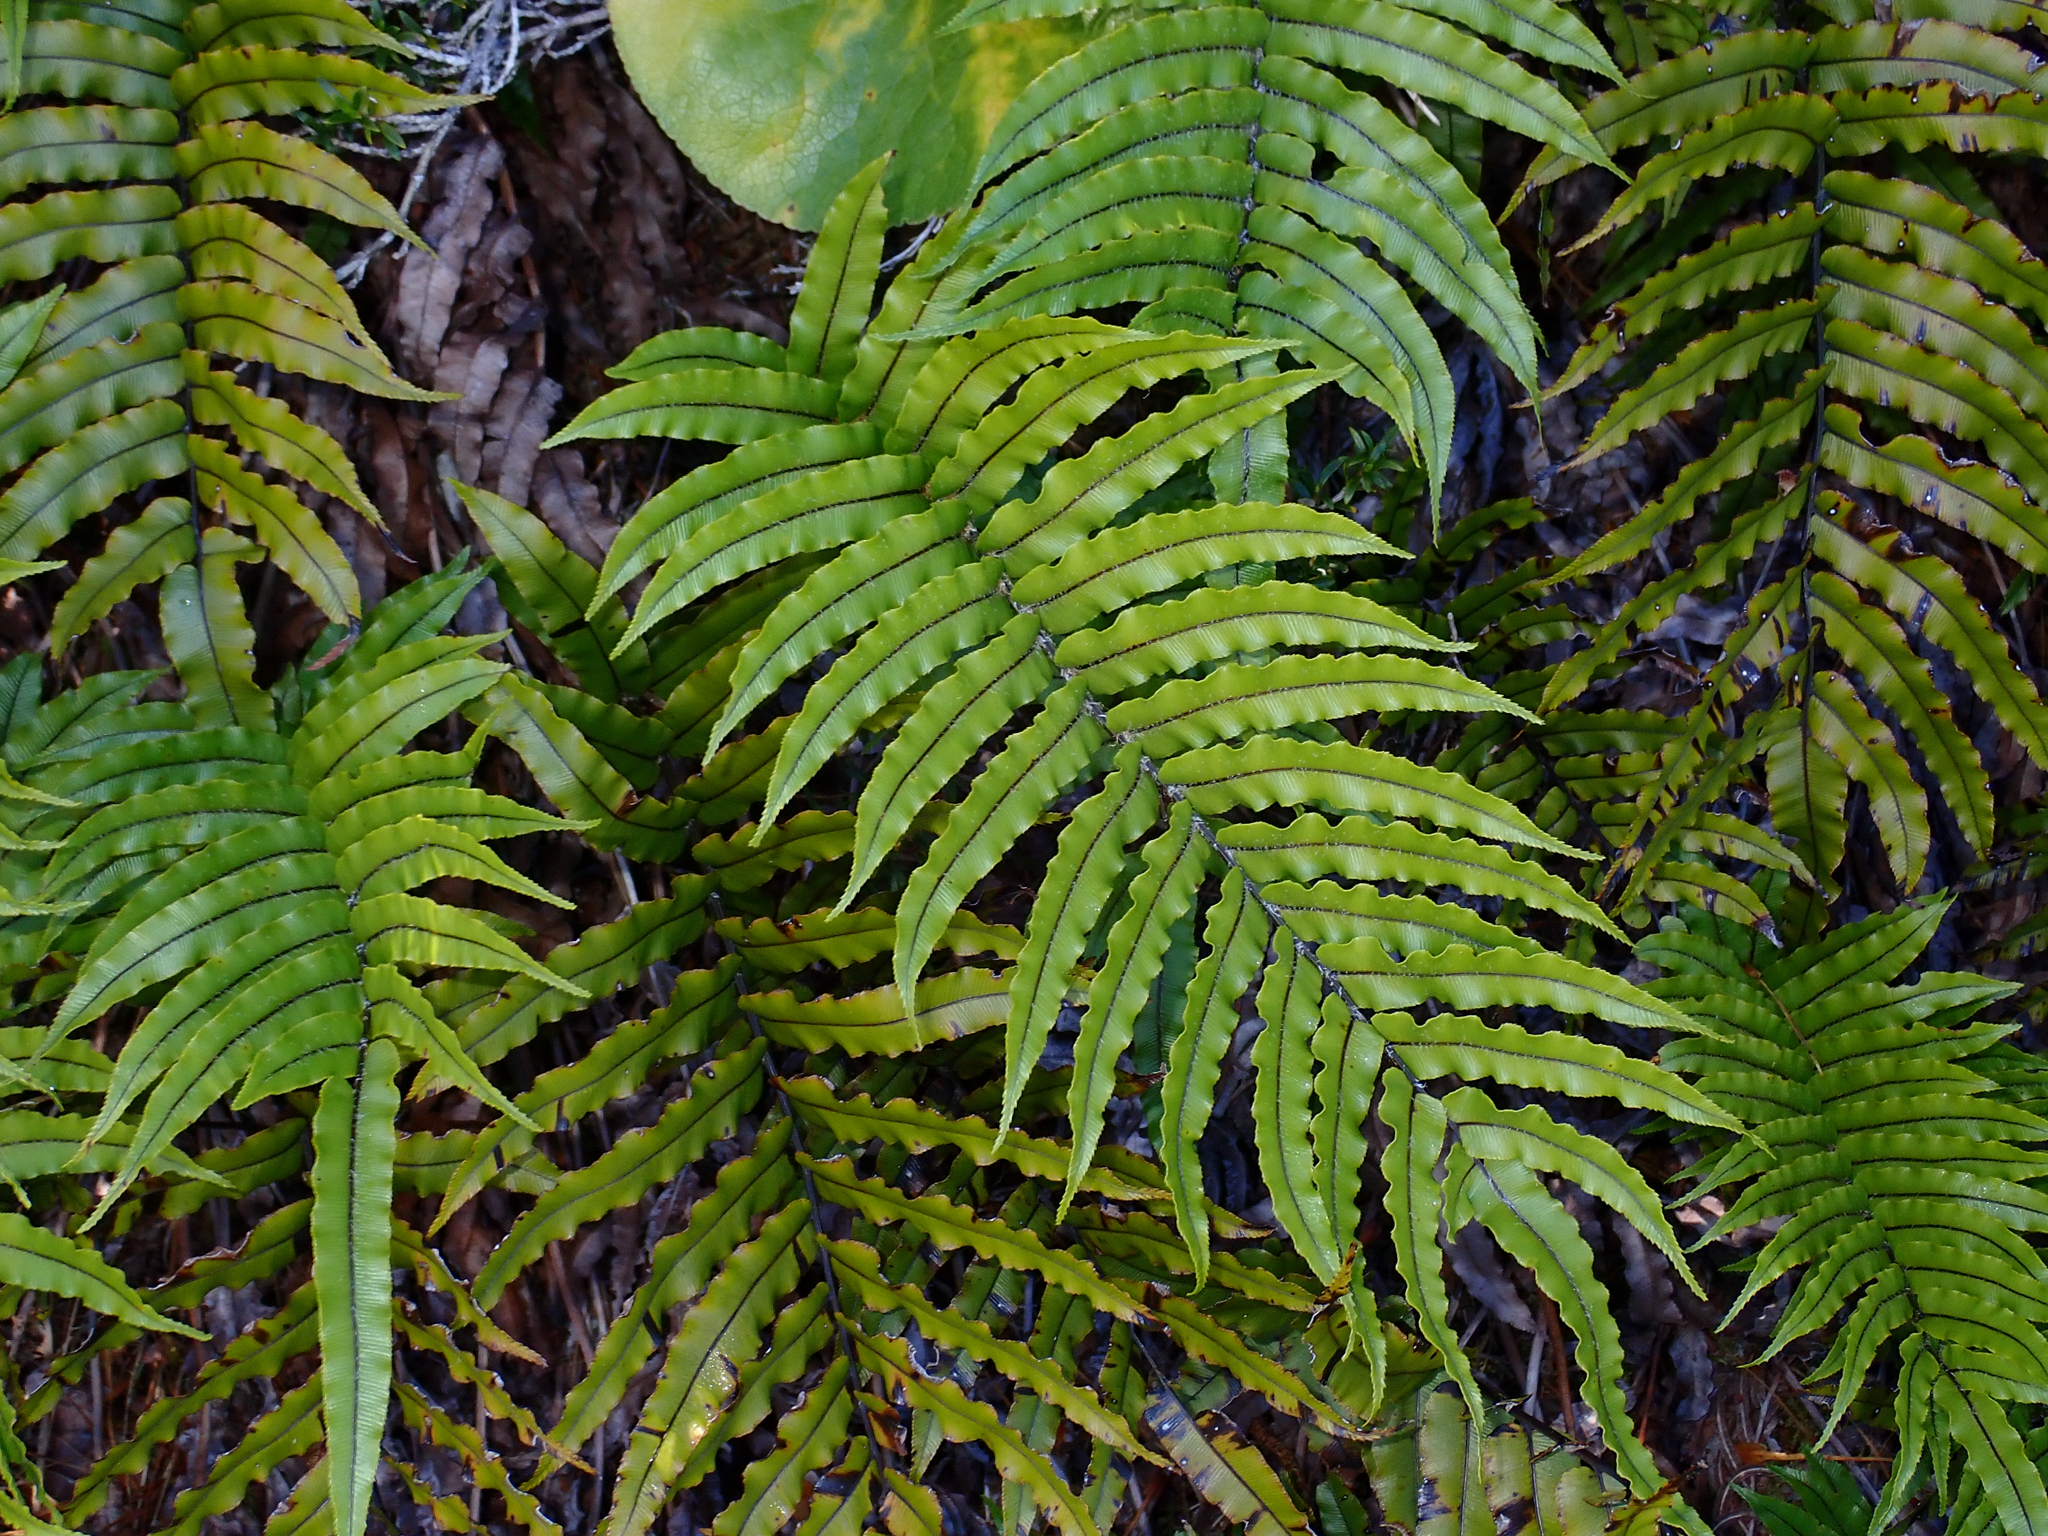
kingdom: Plantae
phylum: Tracheophyta
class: Polypodiopsida
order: Polypodiales
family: Blechnaceae
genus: Parablechnum
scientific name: Parablechnum montanum
